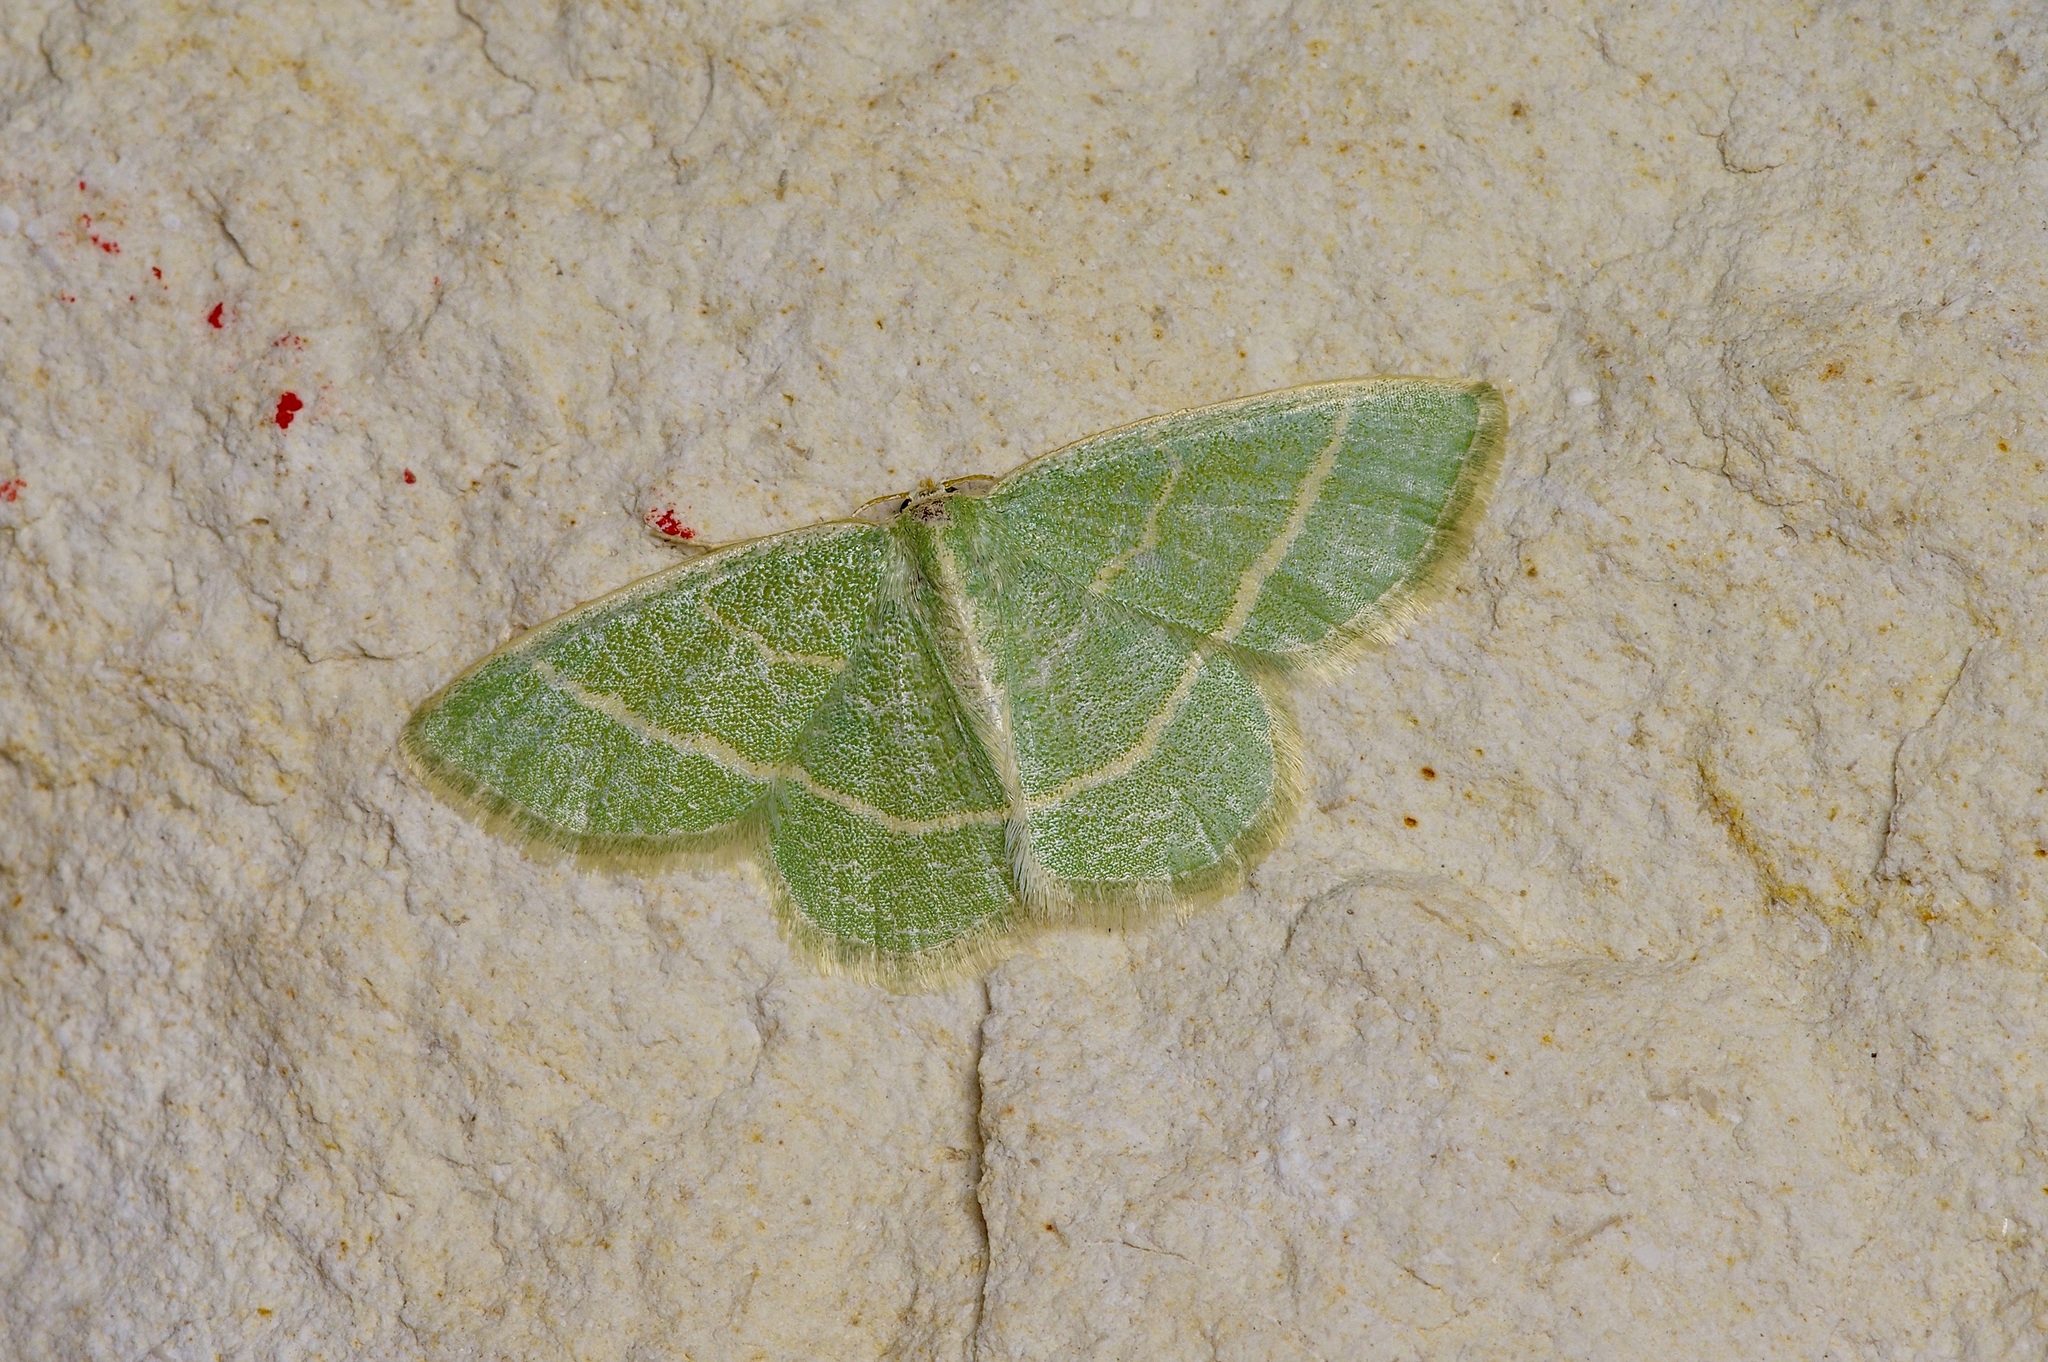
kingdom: Animalia
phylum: Arthropoda
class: Insecta
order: Lepidoptera
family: Geometridae
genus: Chlorochlamys
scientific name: Chlorochlamys chloroleucaria
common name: Blackberry looper
